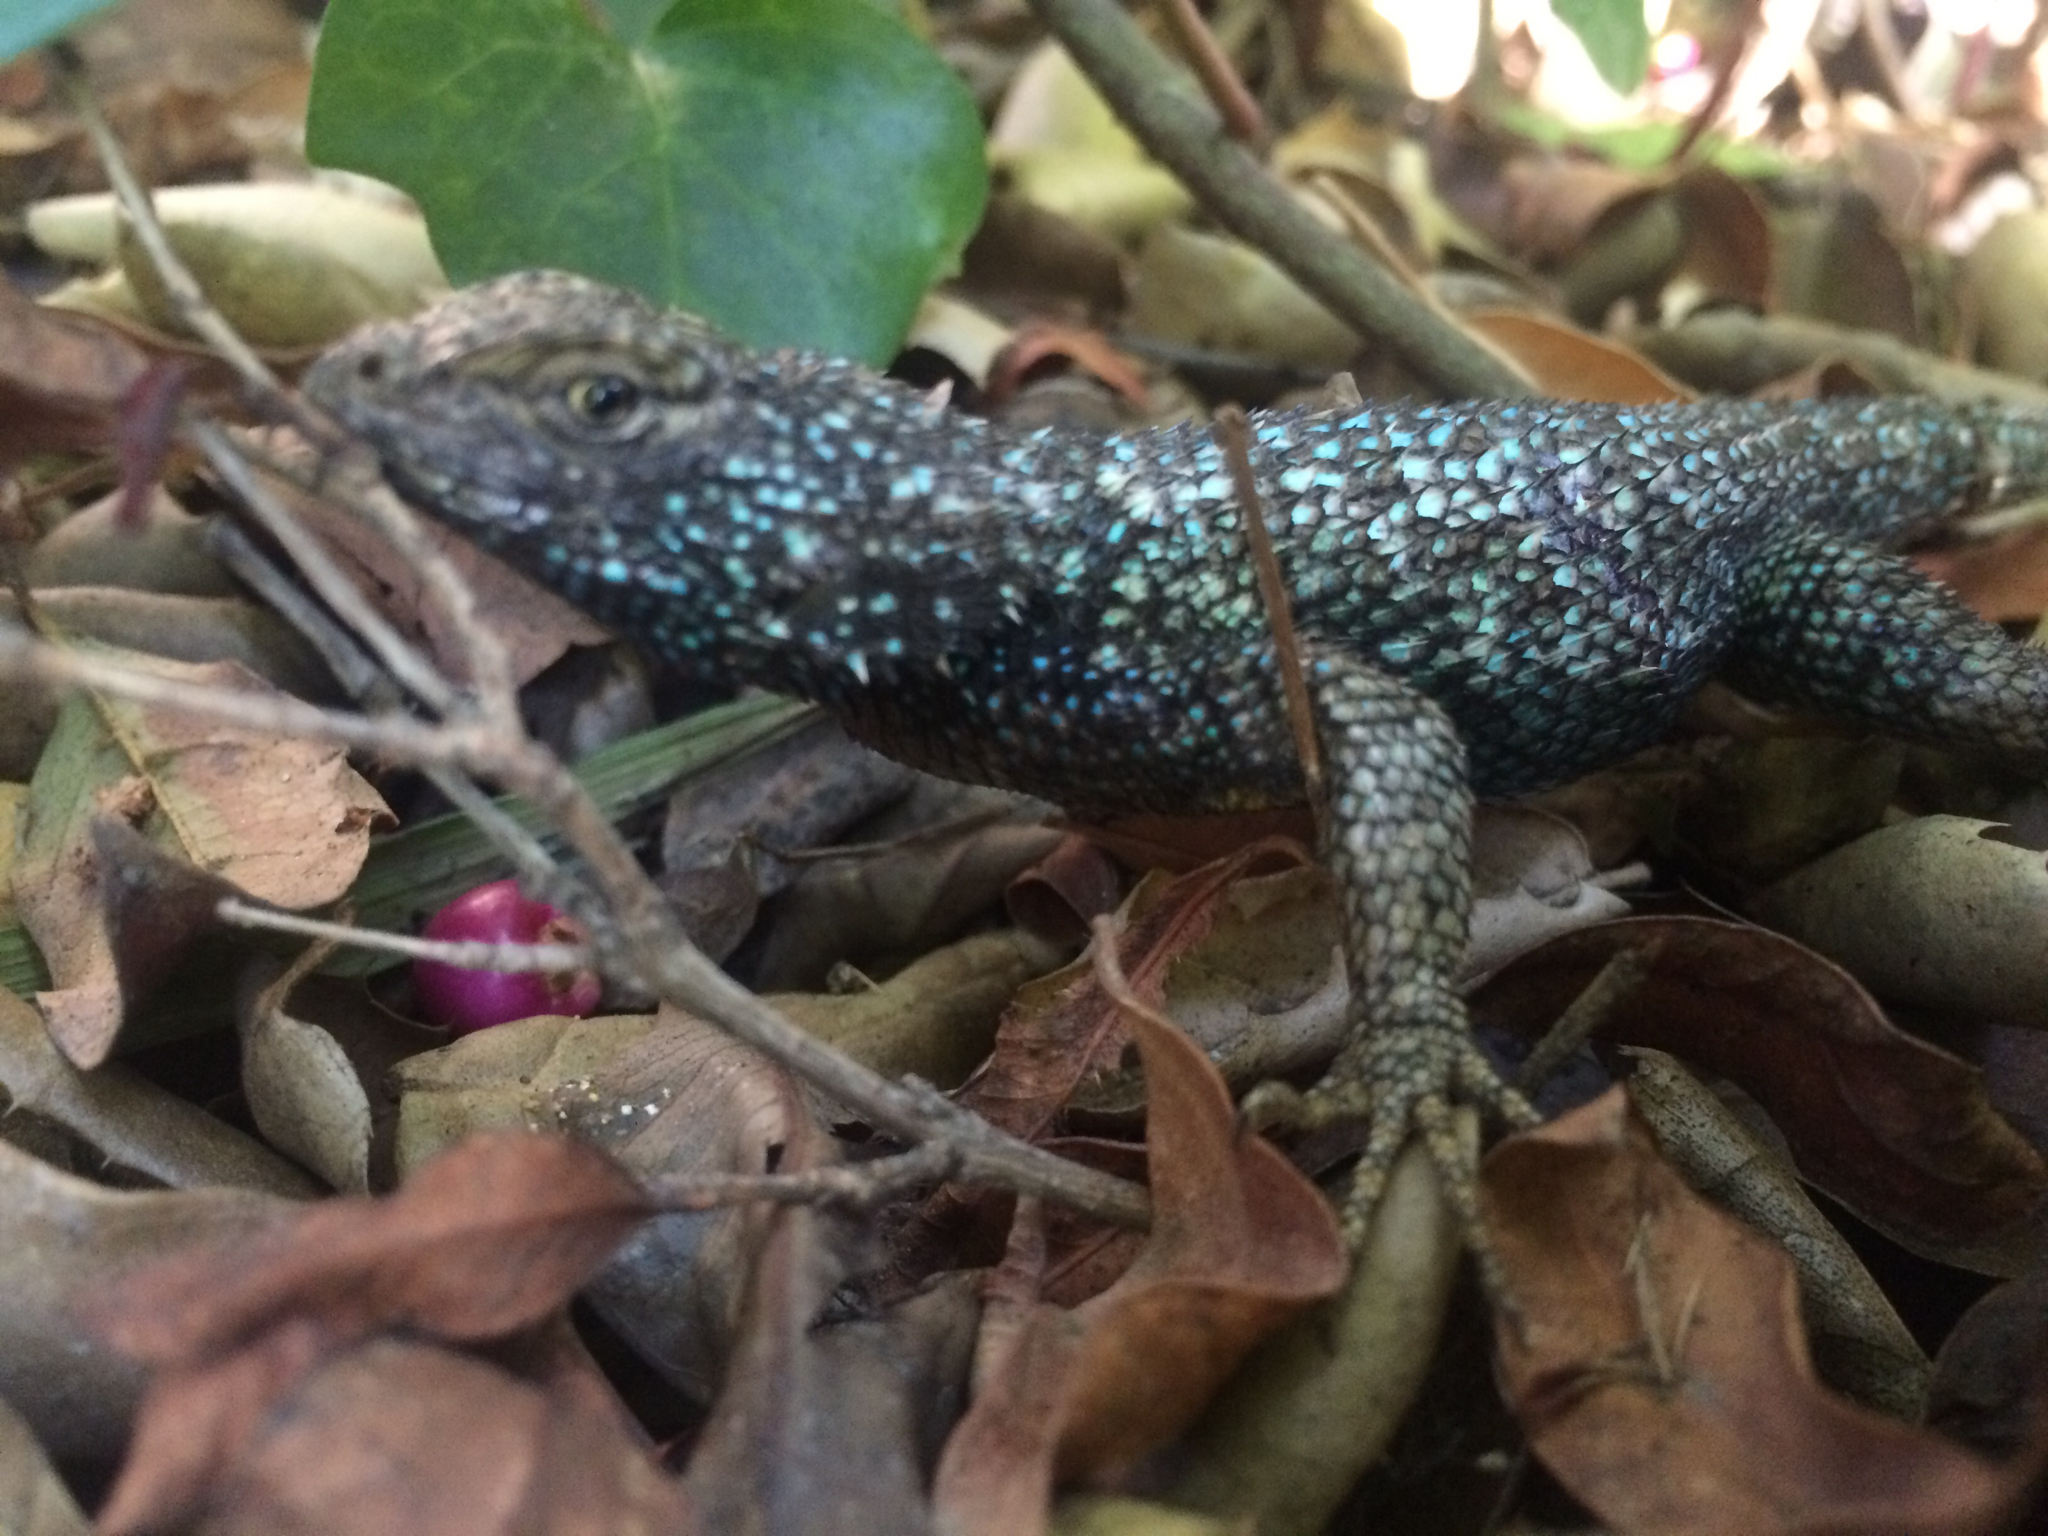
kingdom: Animalia
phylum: Chordata
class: Squamata
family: Phrynosomatidae
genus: Sceloporus
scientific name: Sceloporus occidentalis
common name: Western fence lizard
